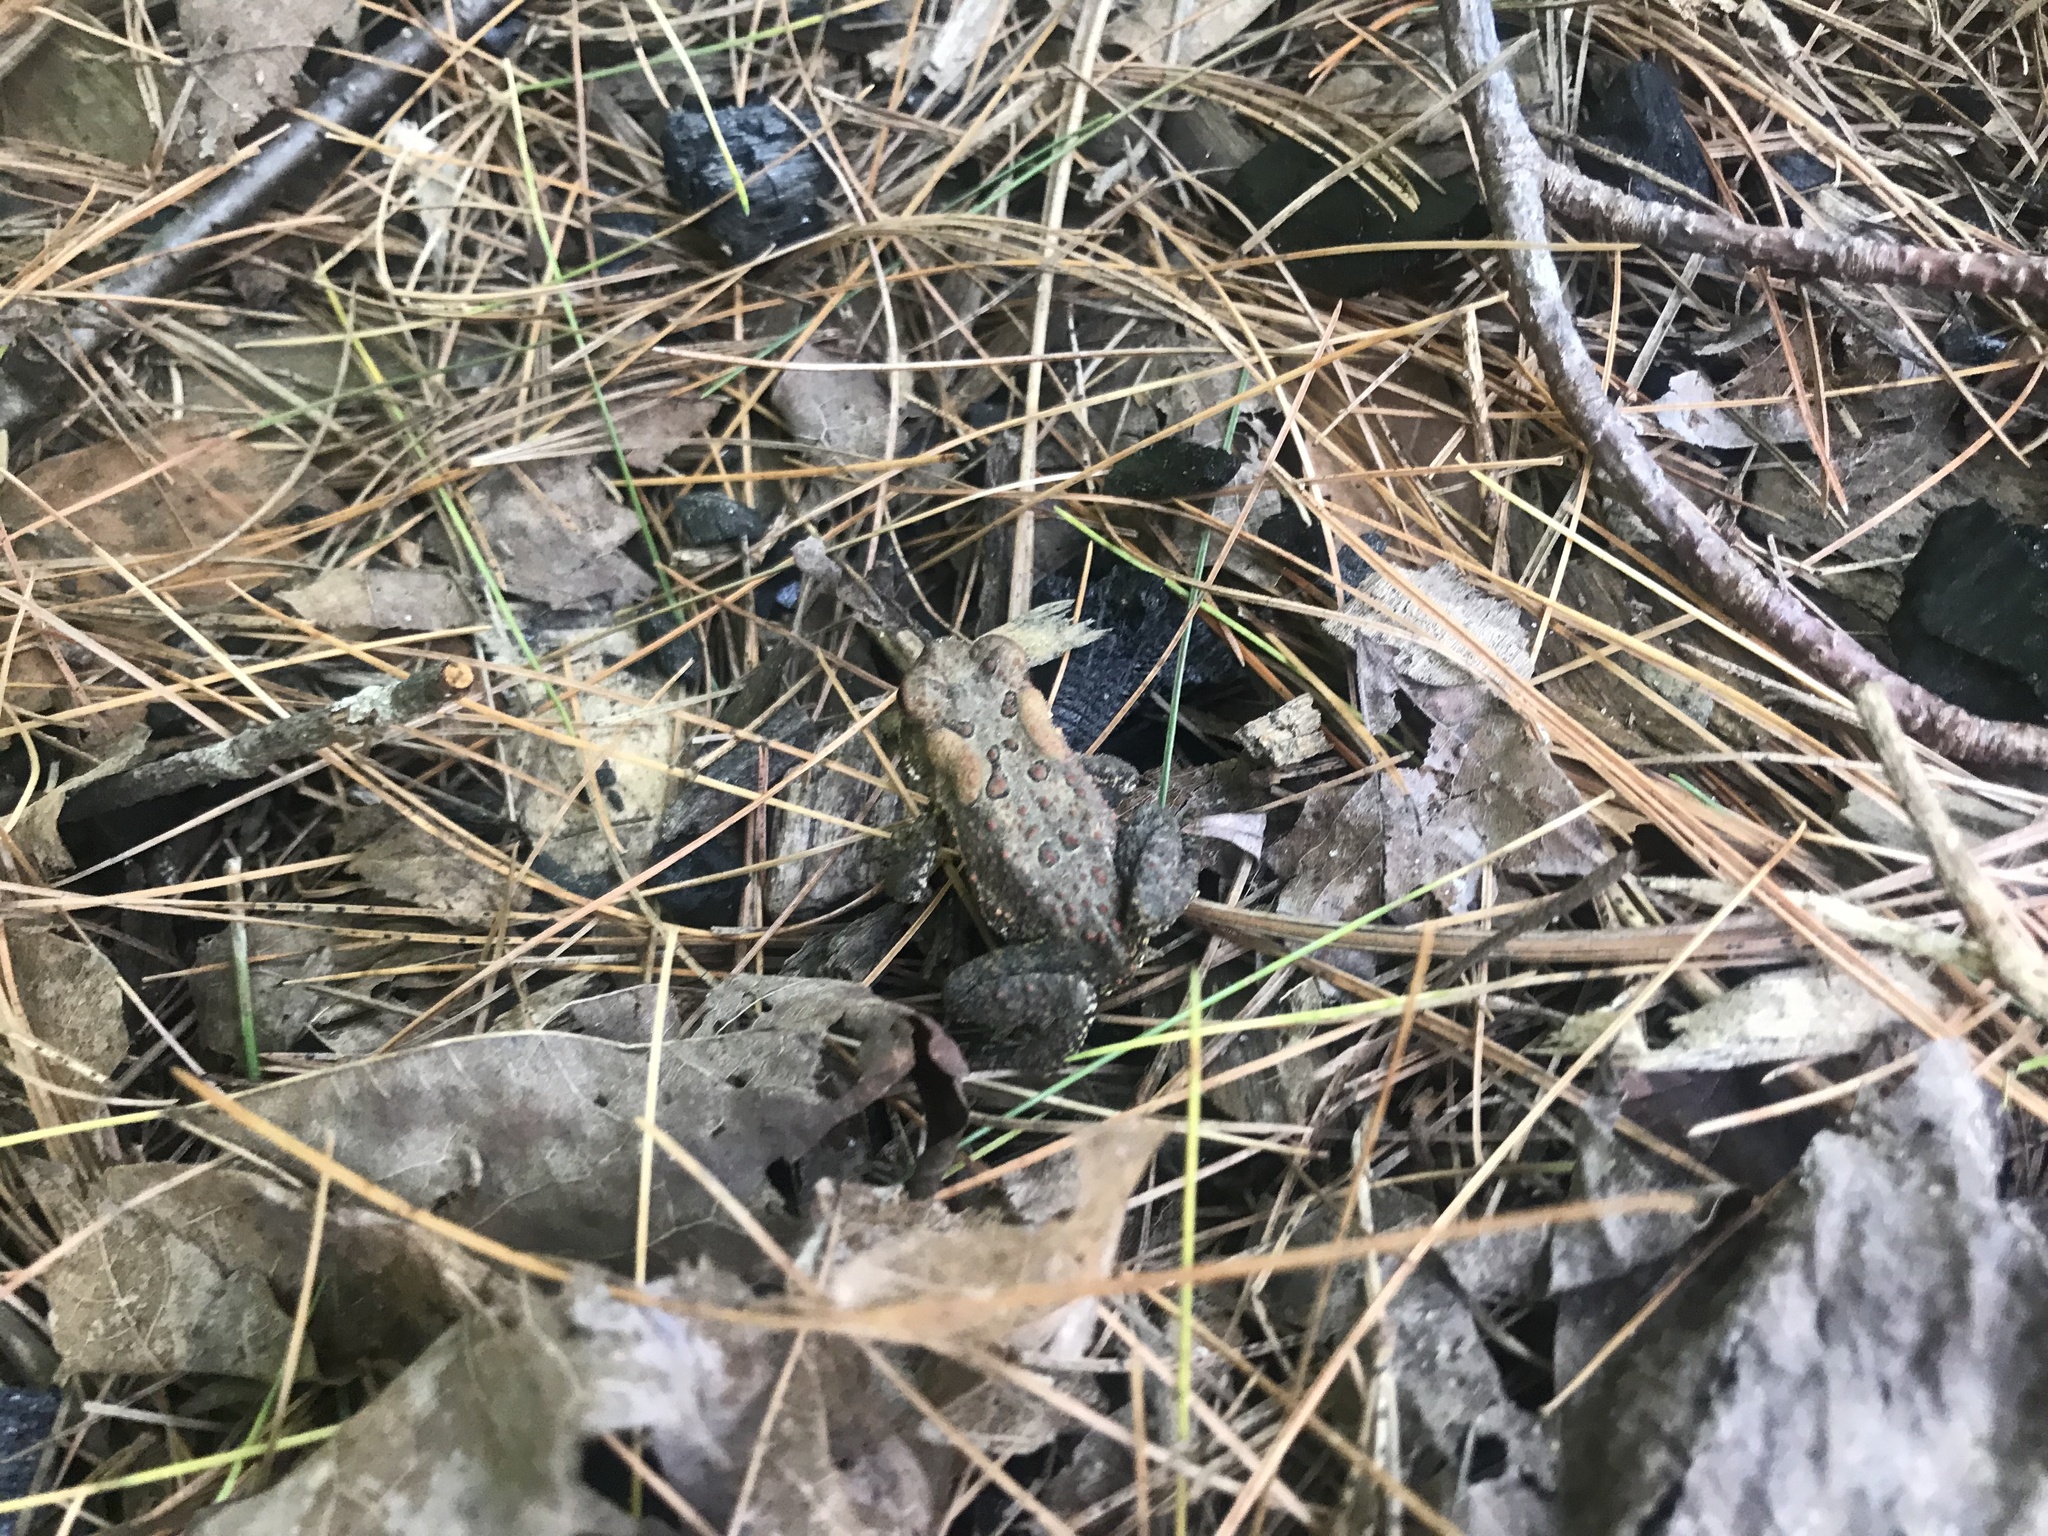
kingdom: Animalia
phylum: Chordata
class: Amphibia
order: Anura
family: Bufonidae
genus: Anaxyrus
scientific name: Anaxyrus americanus
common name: American toad
